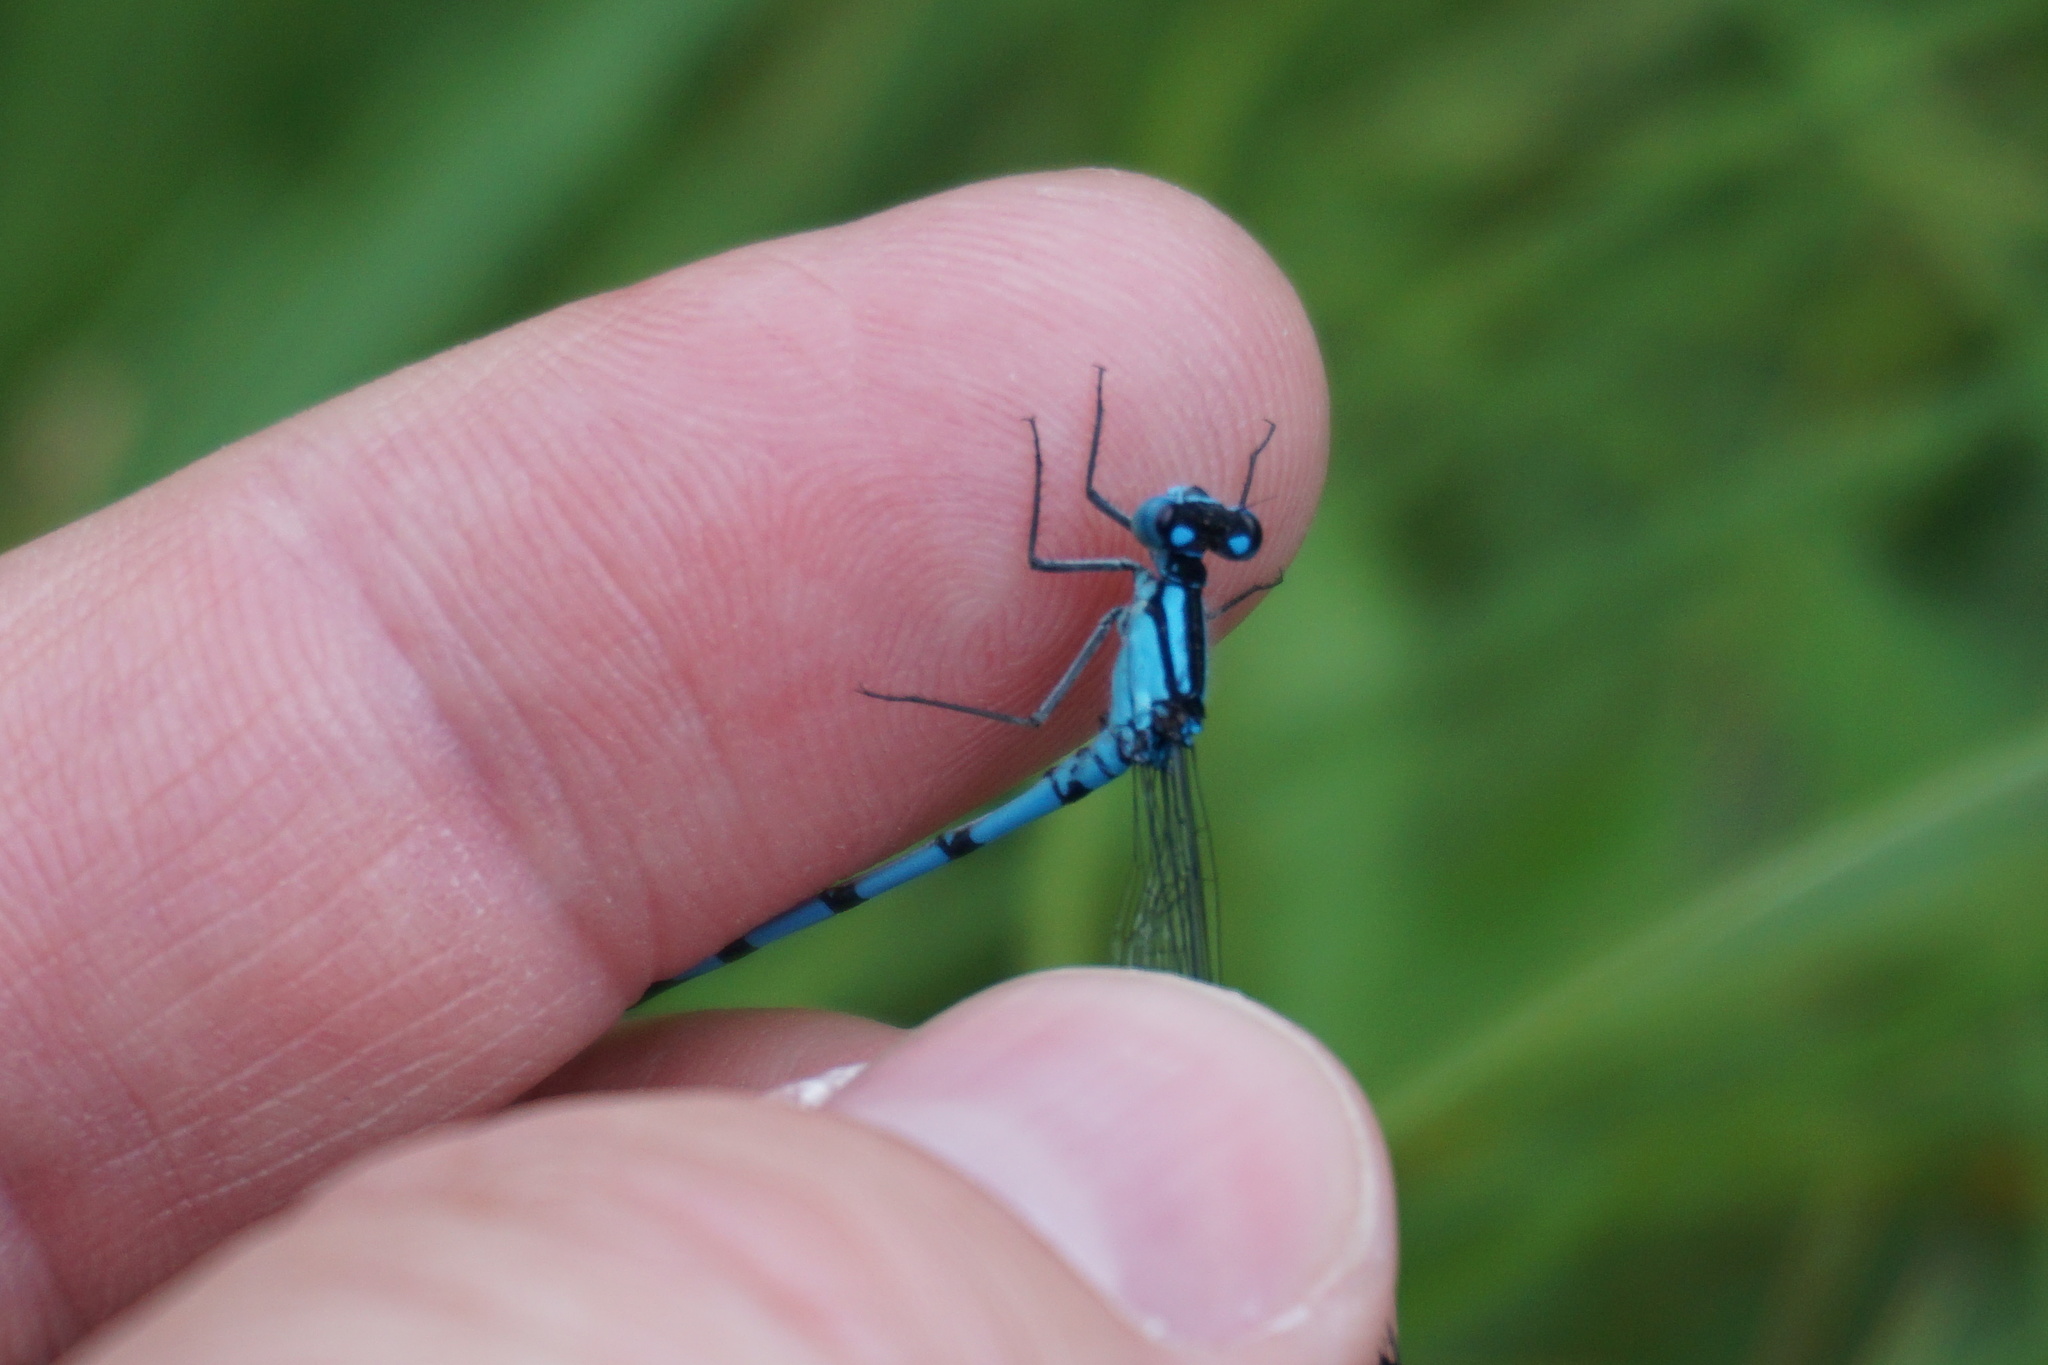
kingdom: Animalia
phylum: Arthropoda
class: Insecta
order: Odonata
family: Coenagrionidae
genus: Enallagma
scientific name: Enallagma cyathigerum
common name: Common blue damselfly
